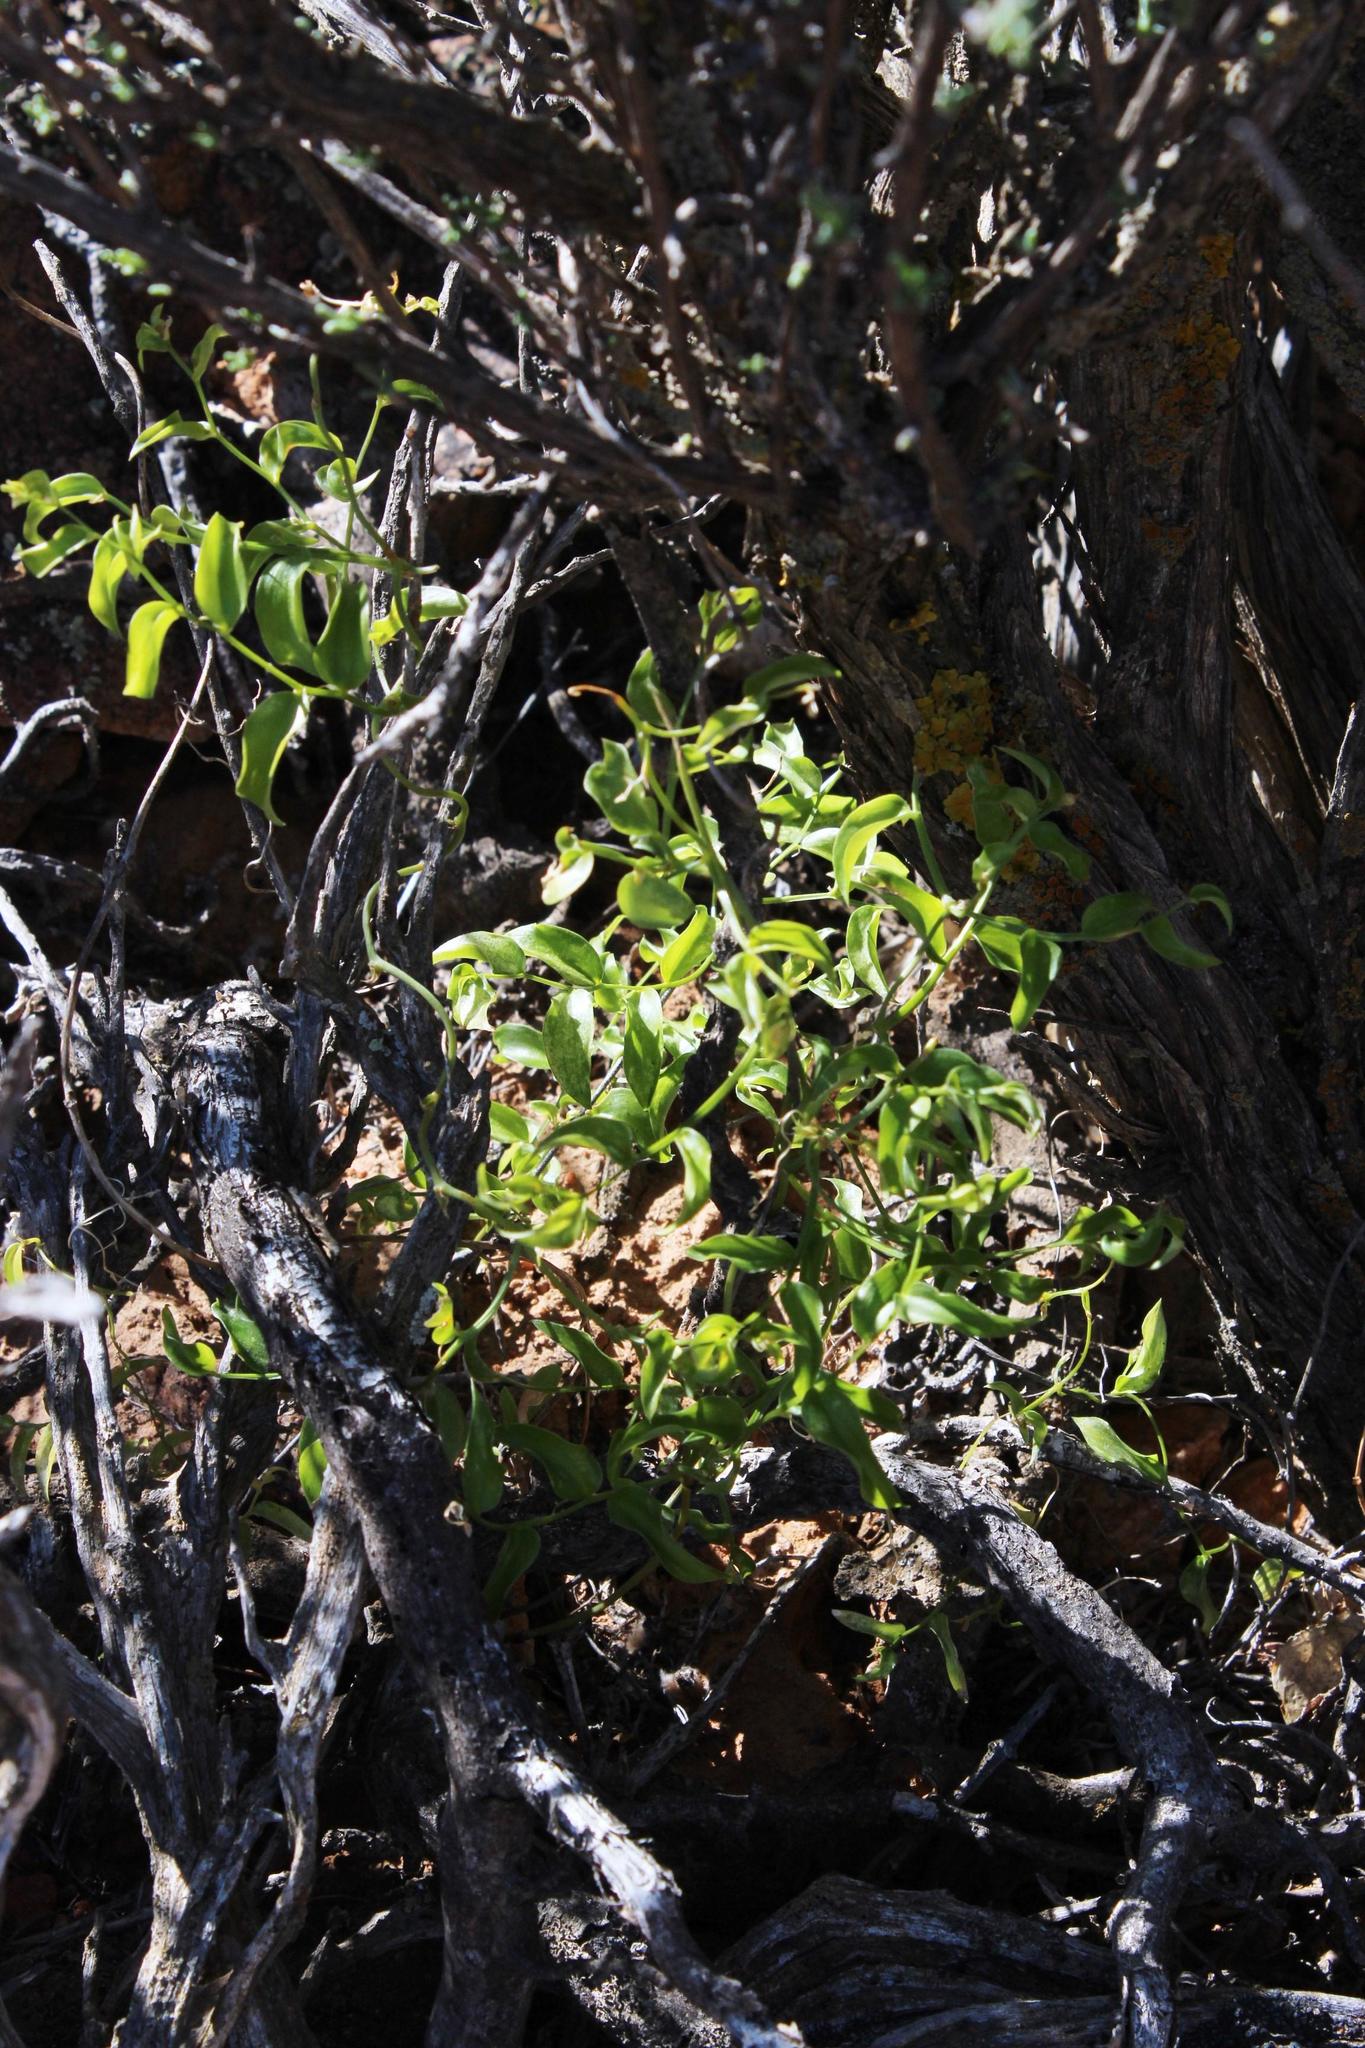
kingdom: Plantae
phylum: Tracheophyta
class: Liliopsida
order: Asparagales
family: Asparagaceae
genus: Asparagus
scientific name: Asparagus asparagoides
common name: African asparagus fern
